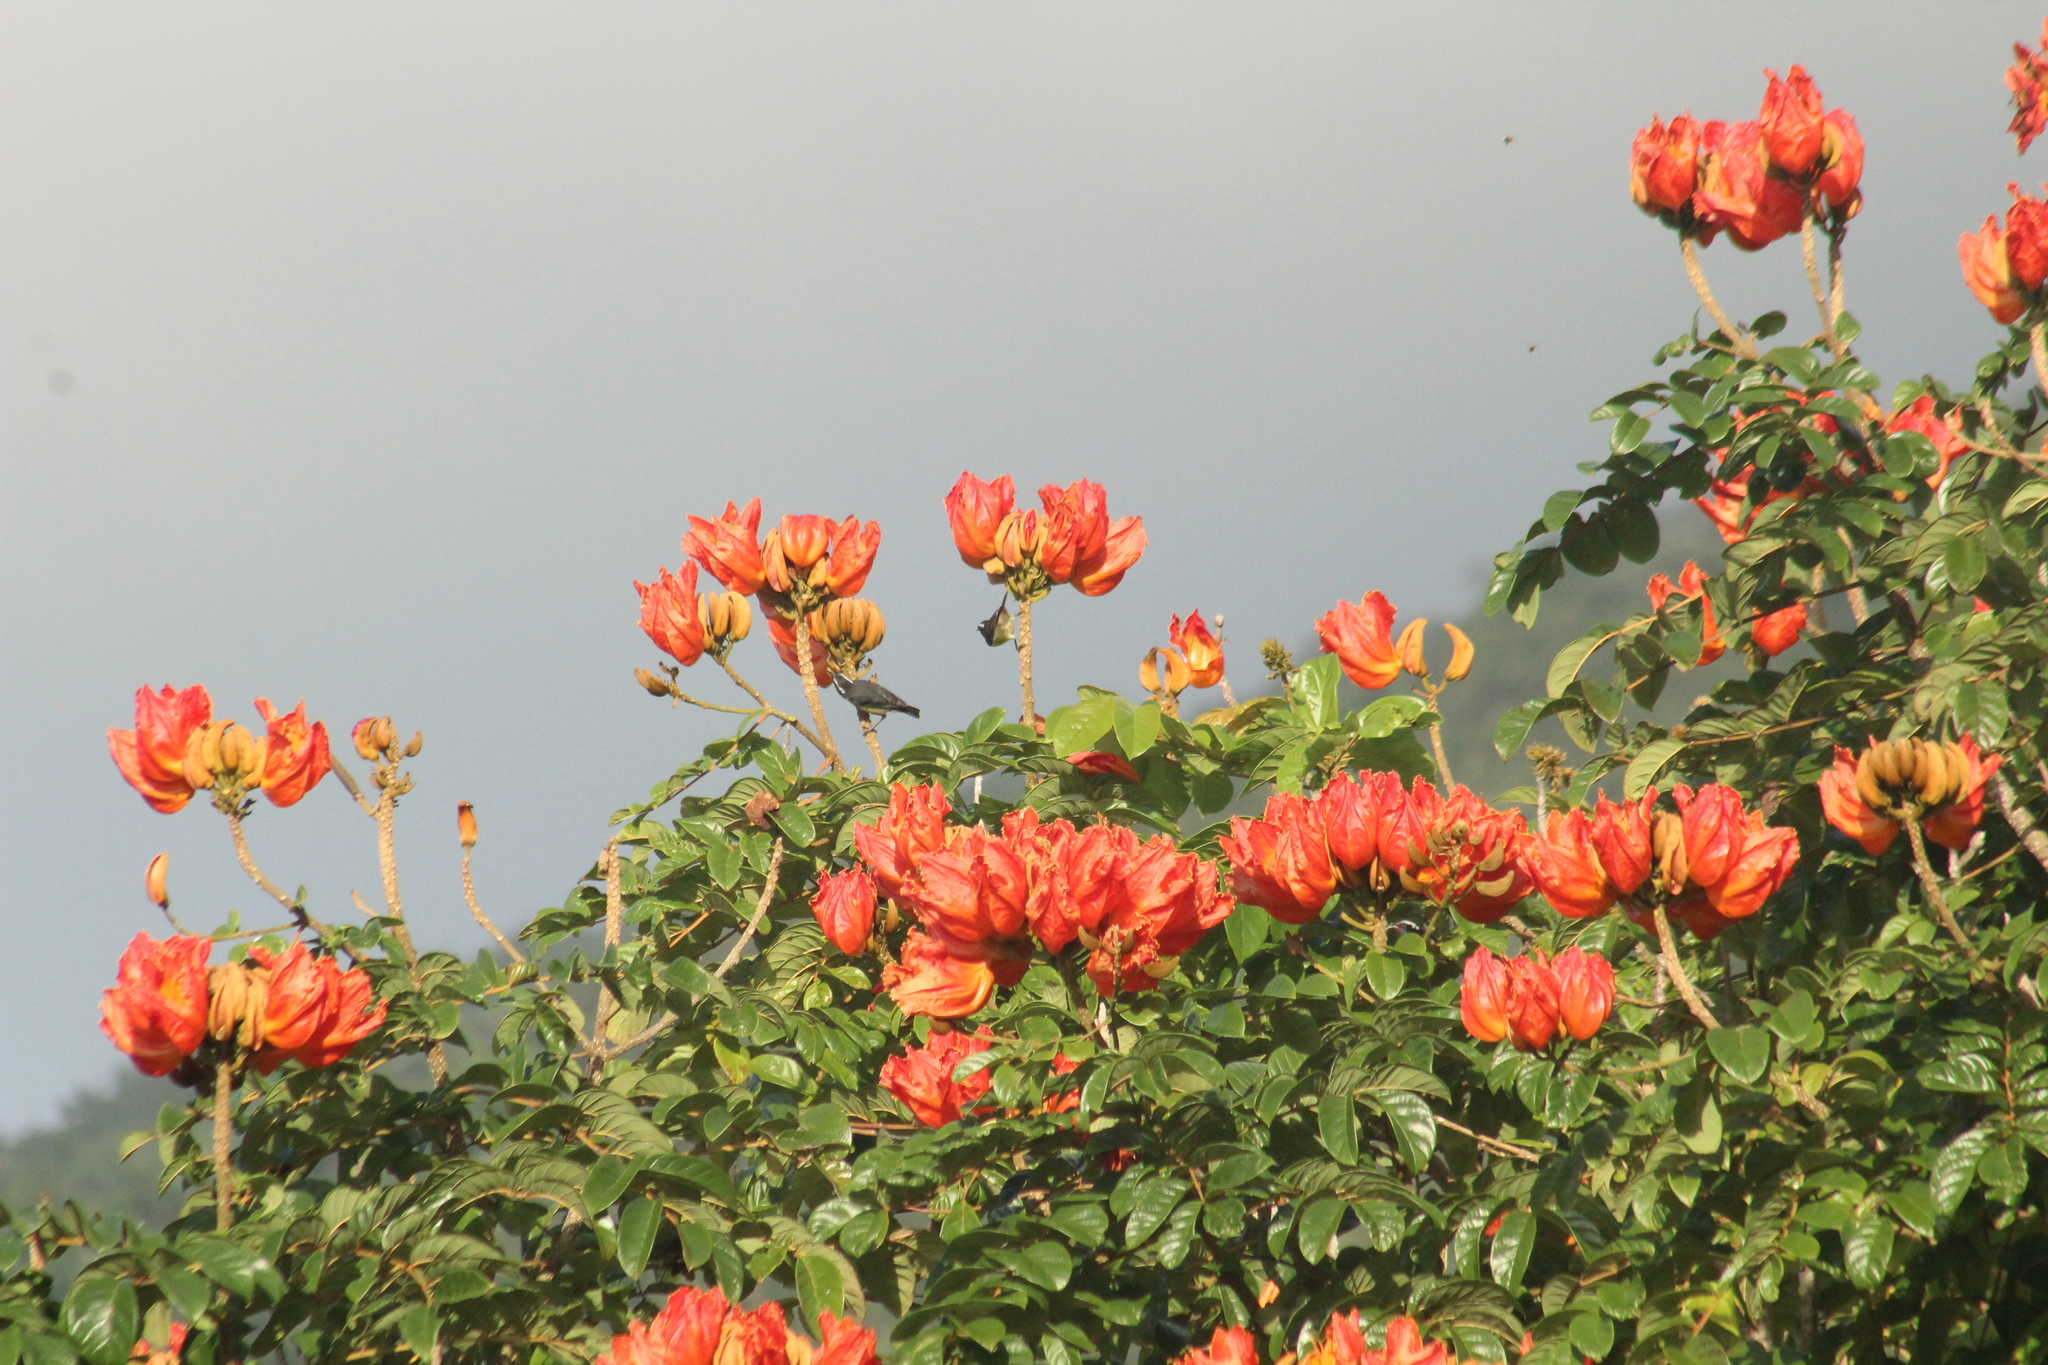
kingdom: Animalia
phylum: Chordata
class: Aves
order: Passeriformes
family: Thraupidae
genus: Coereba
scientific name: Coereba flaveola
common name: Bananaquit
